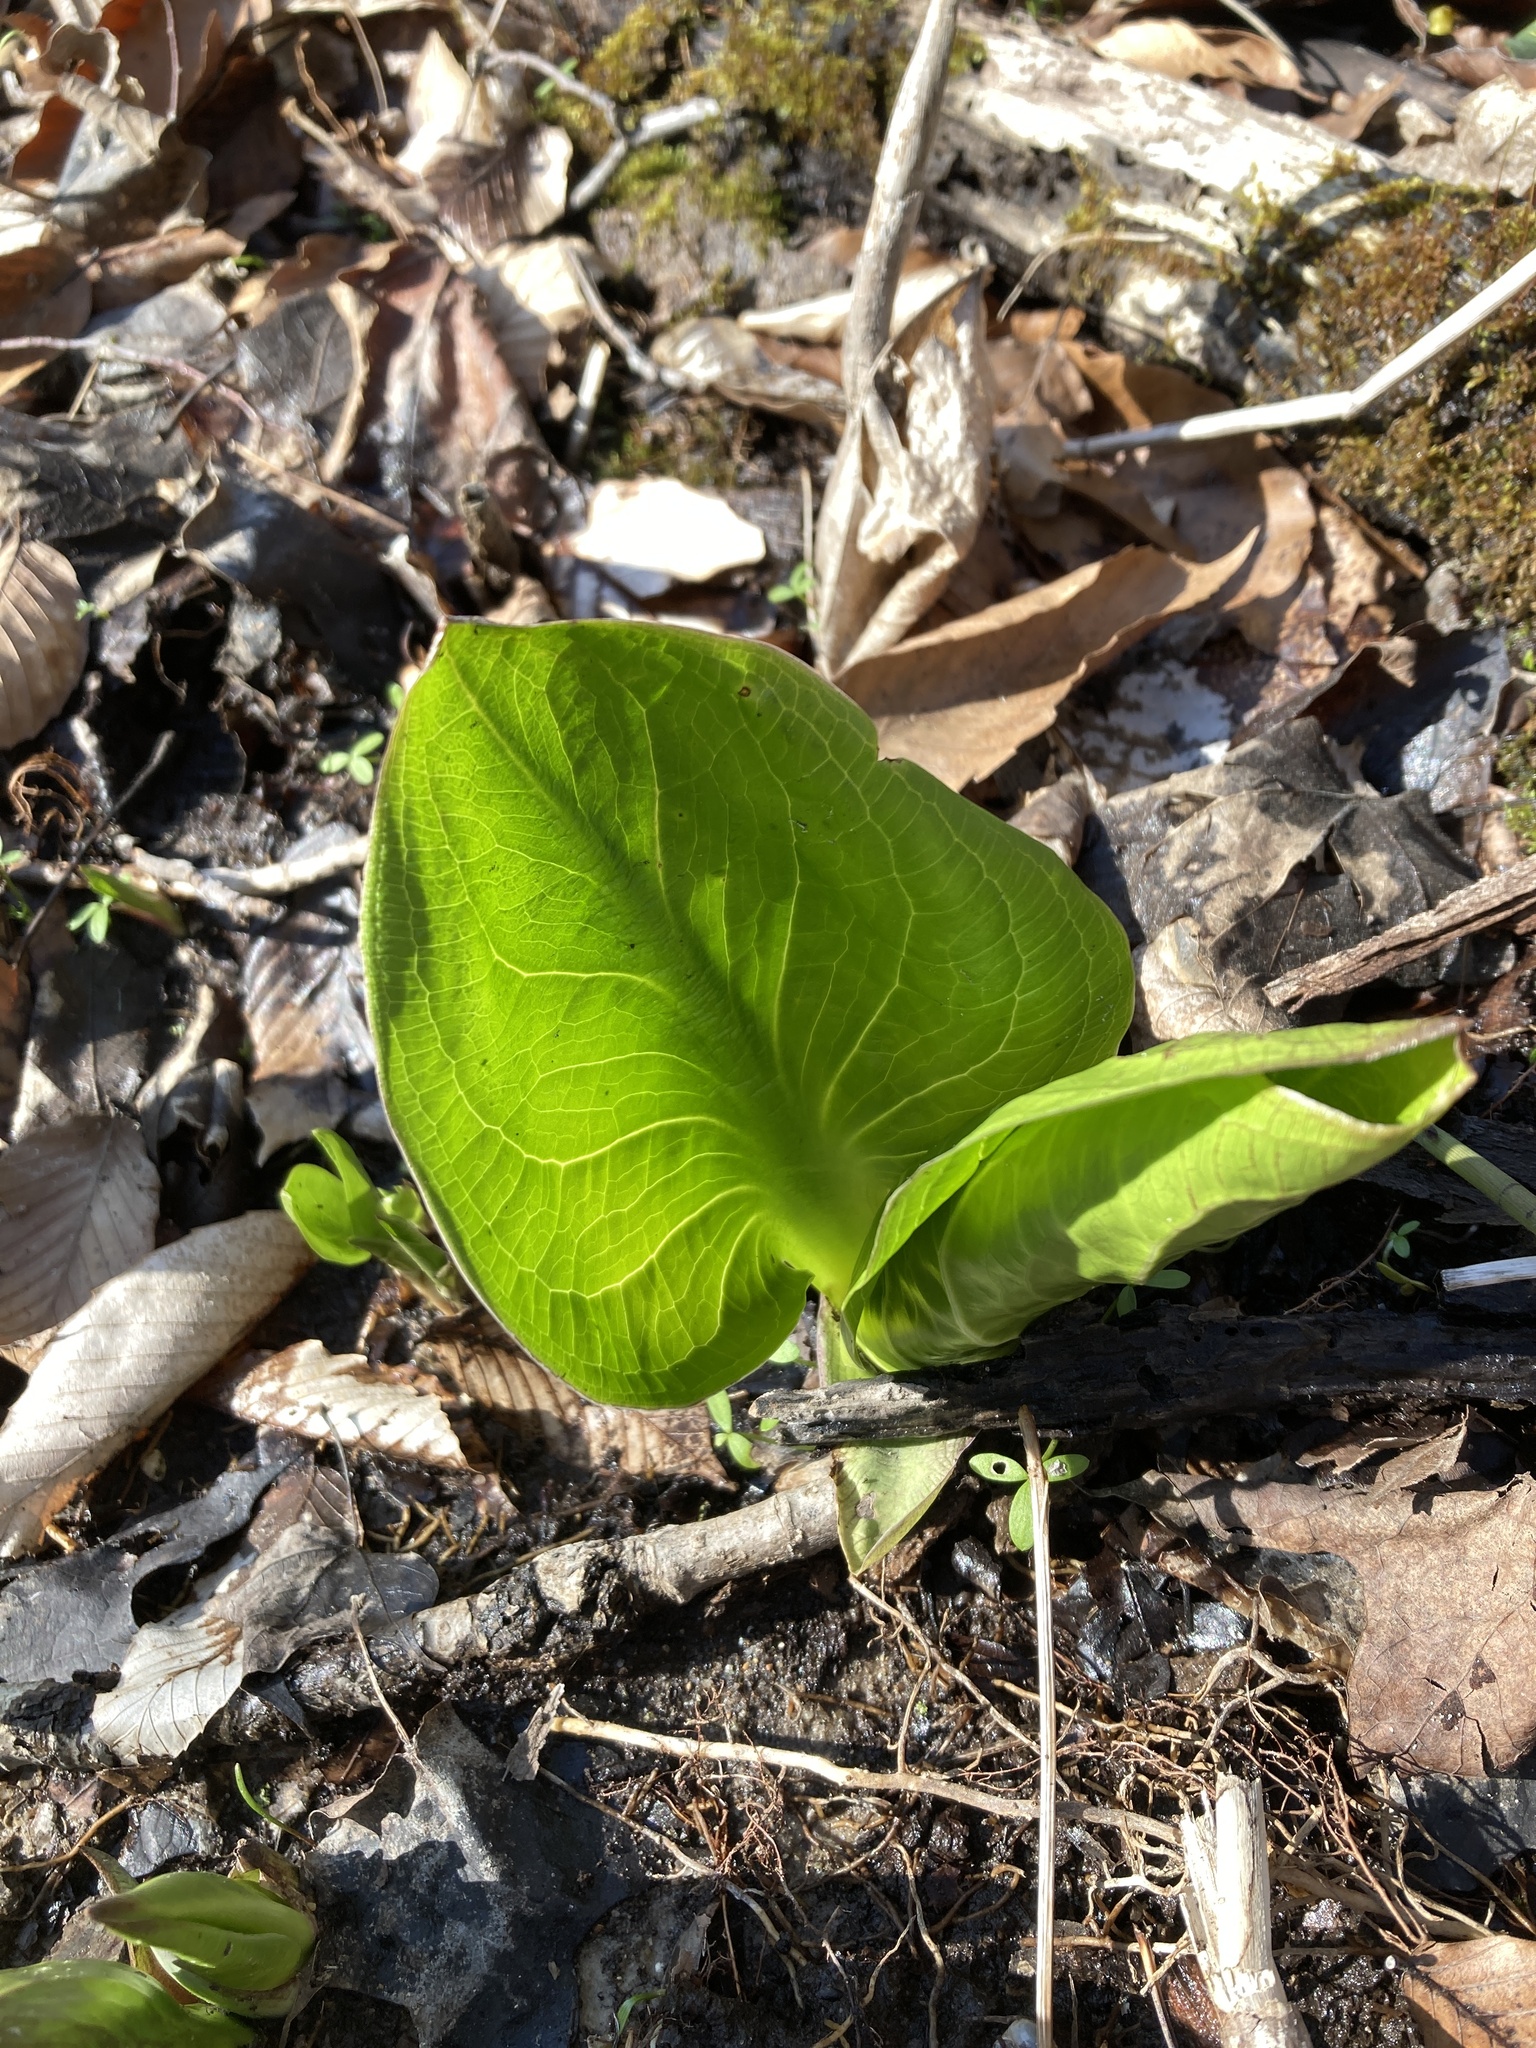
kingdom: Plantae
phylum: Tracheophyta
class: Liliopsida
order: Alismatales
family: Araceae
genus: Symplocarpus
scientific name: Symplocarpus foetidus
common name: Eastern skunk cabbage
